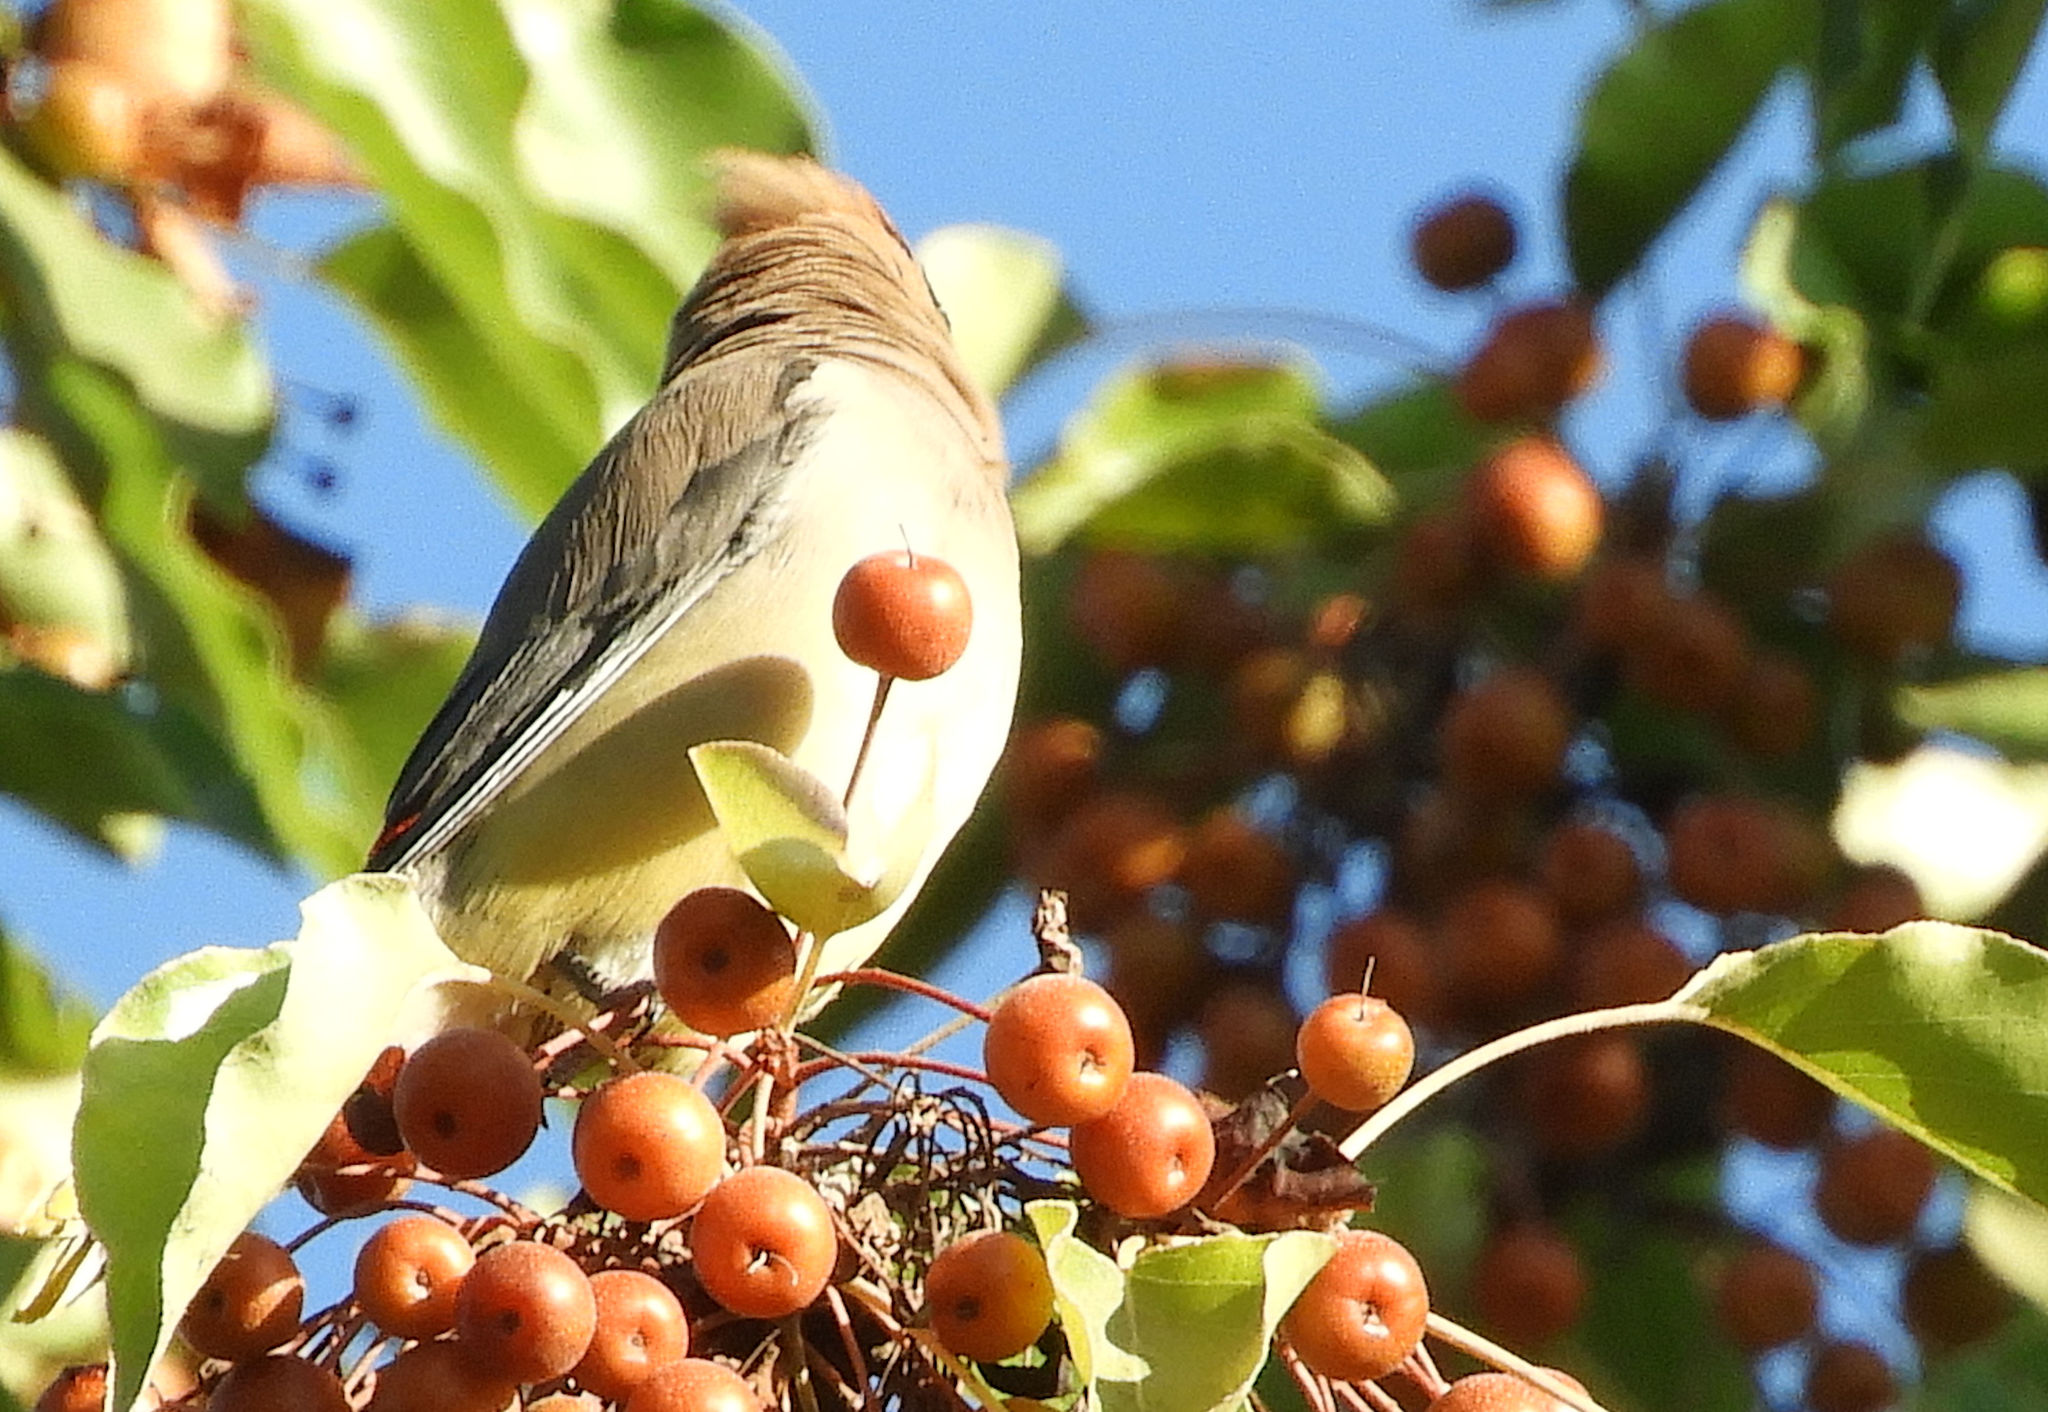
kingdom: Animalia
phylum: Chordata
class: Aves
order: Passeriformes
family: Bombycillidae
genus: Bombycilla
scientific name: Bombycilla cedrorum
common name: Cedar waxwing
